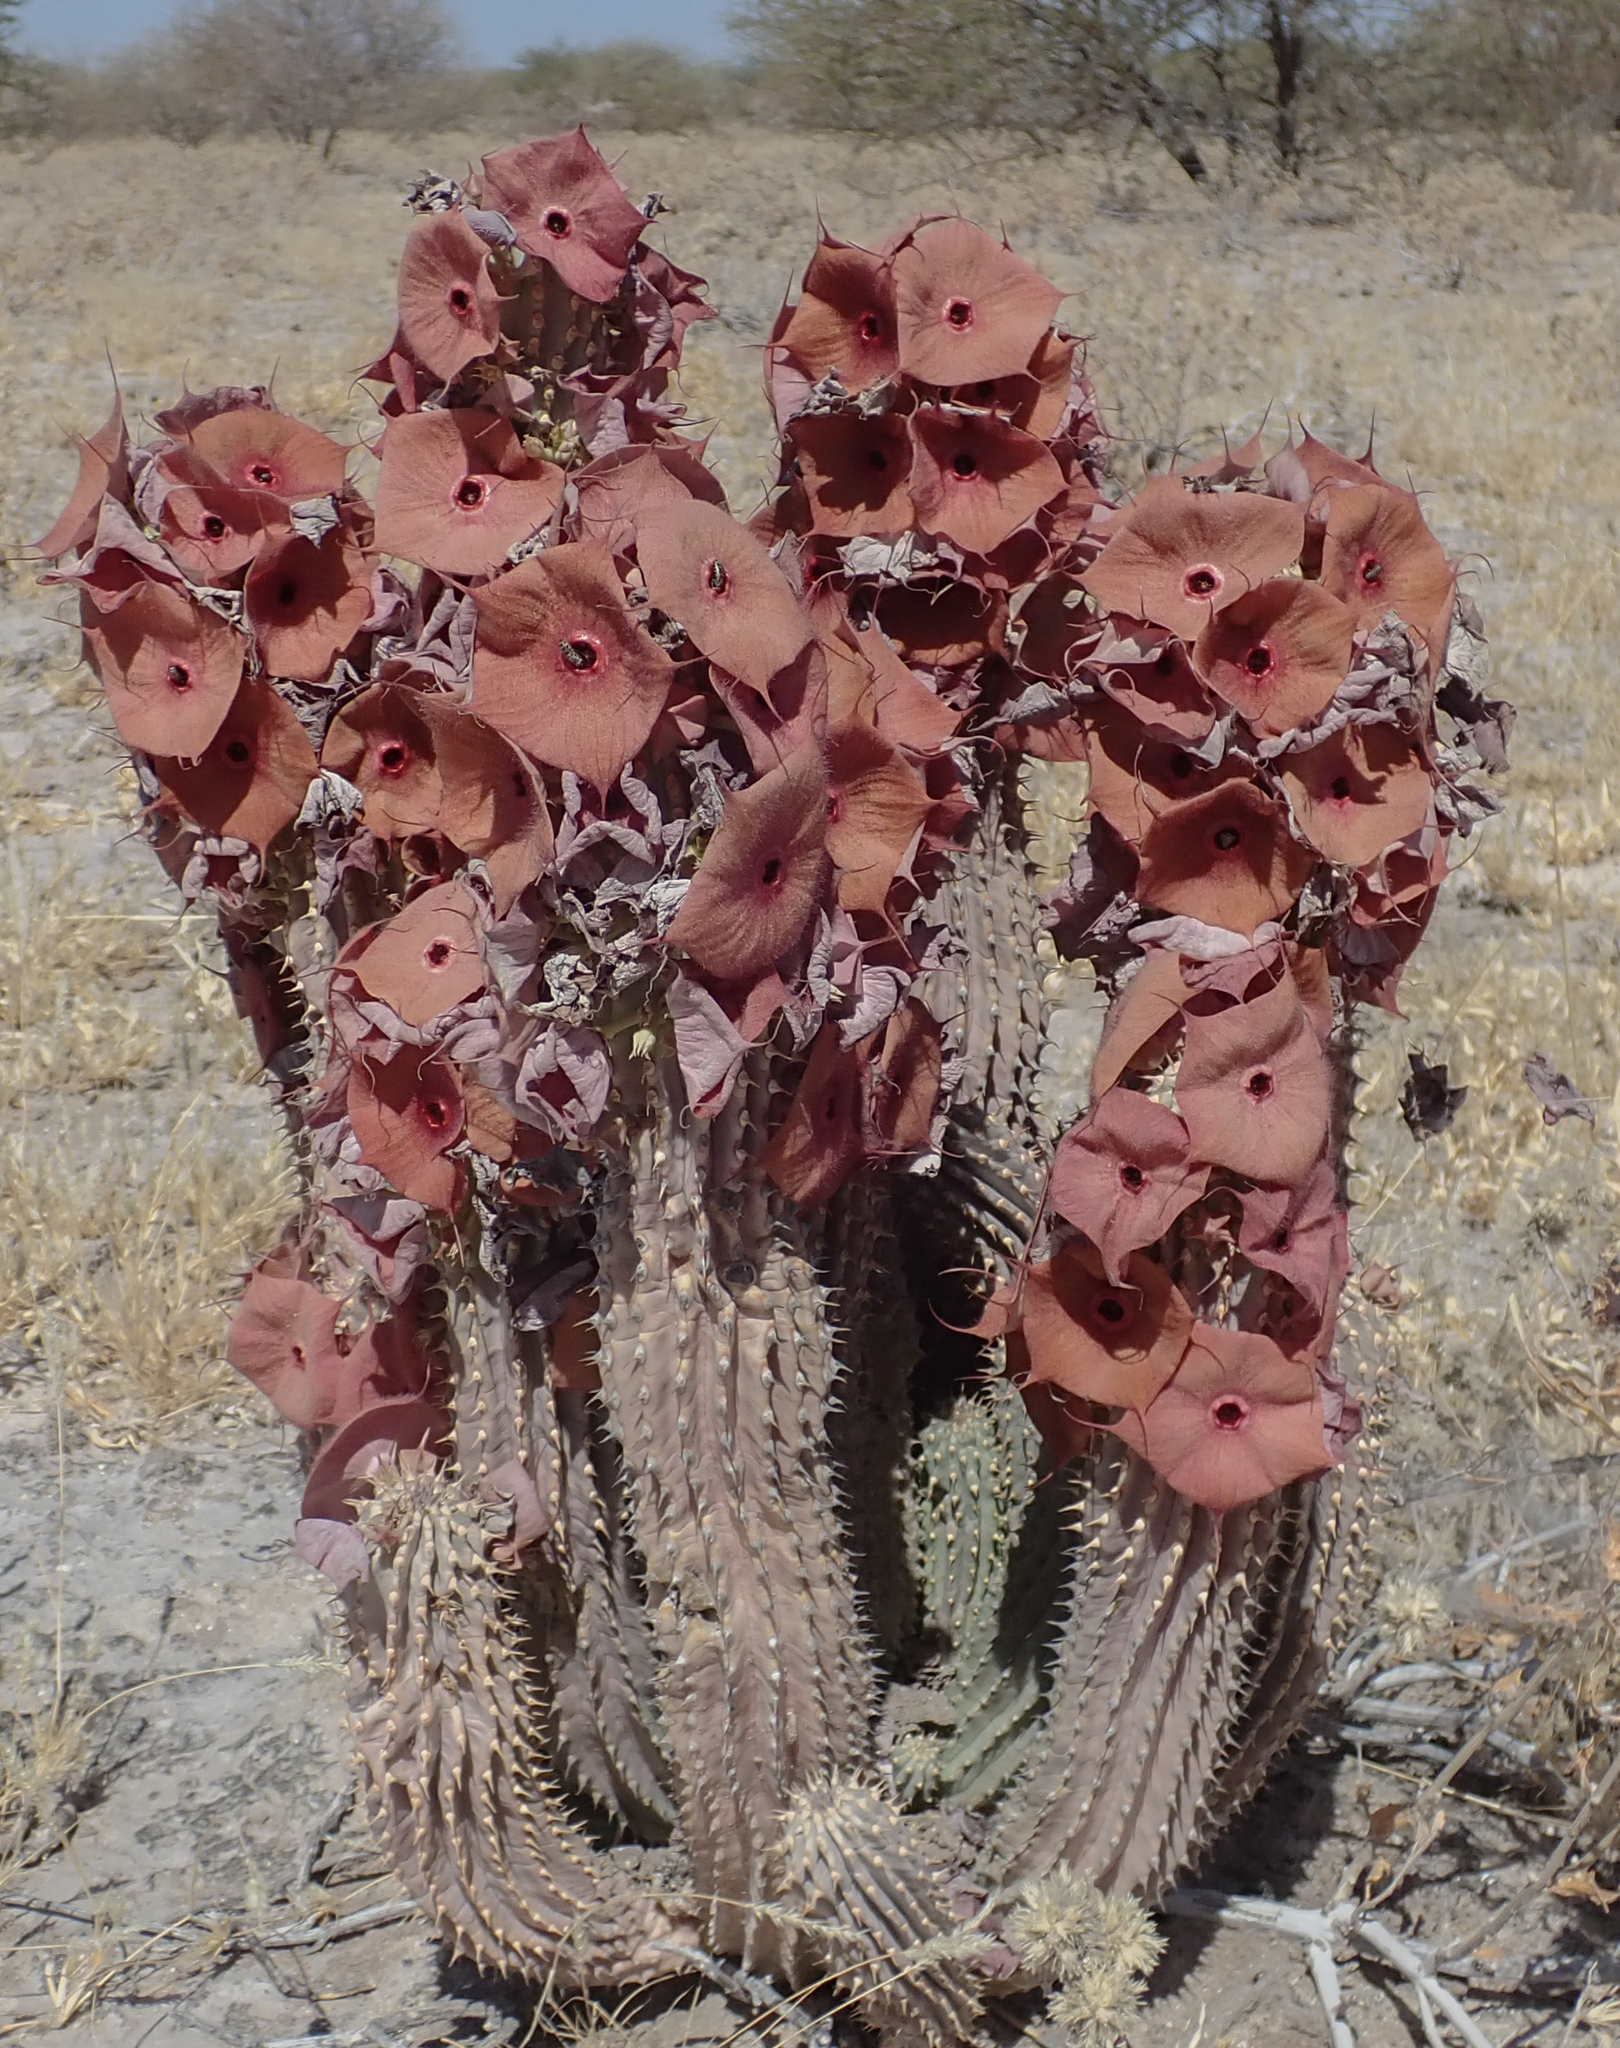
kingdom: Plantae
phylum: Tracheophyta
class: Magnoliopsida
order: Gentianales
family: Apocynaceae
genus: Ceropegia
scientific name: Ceropegia currorii
